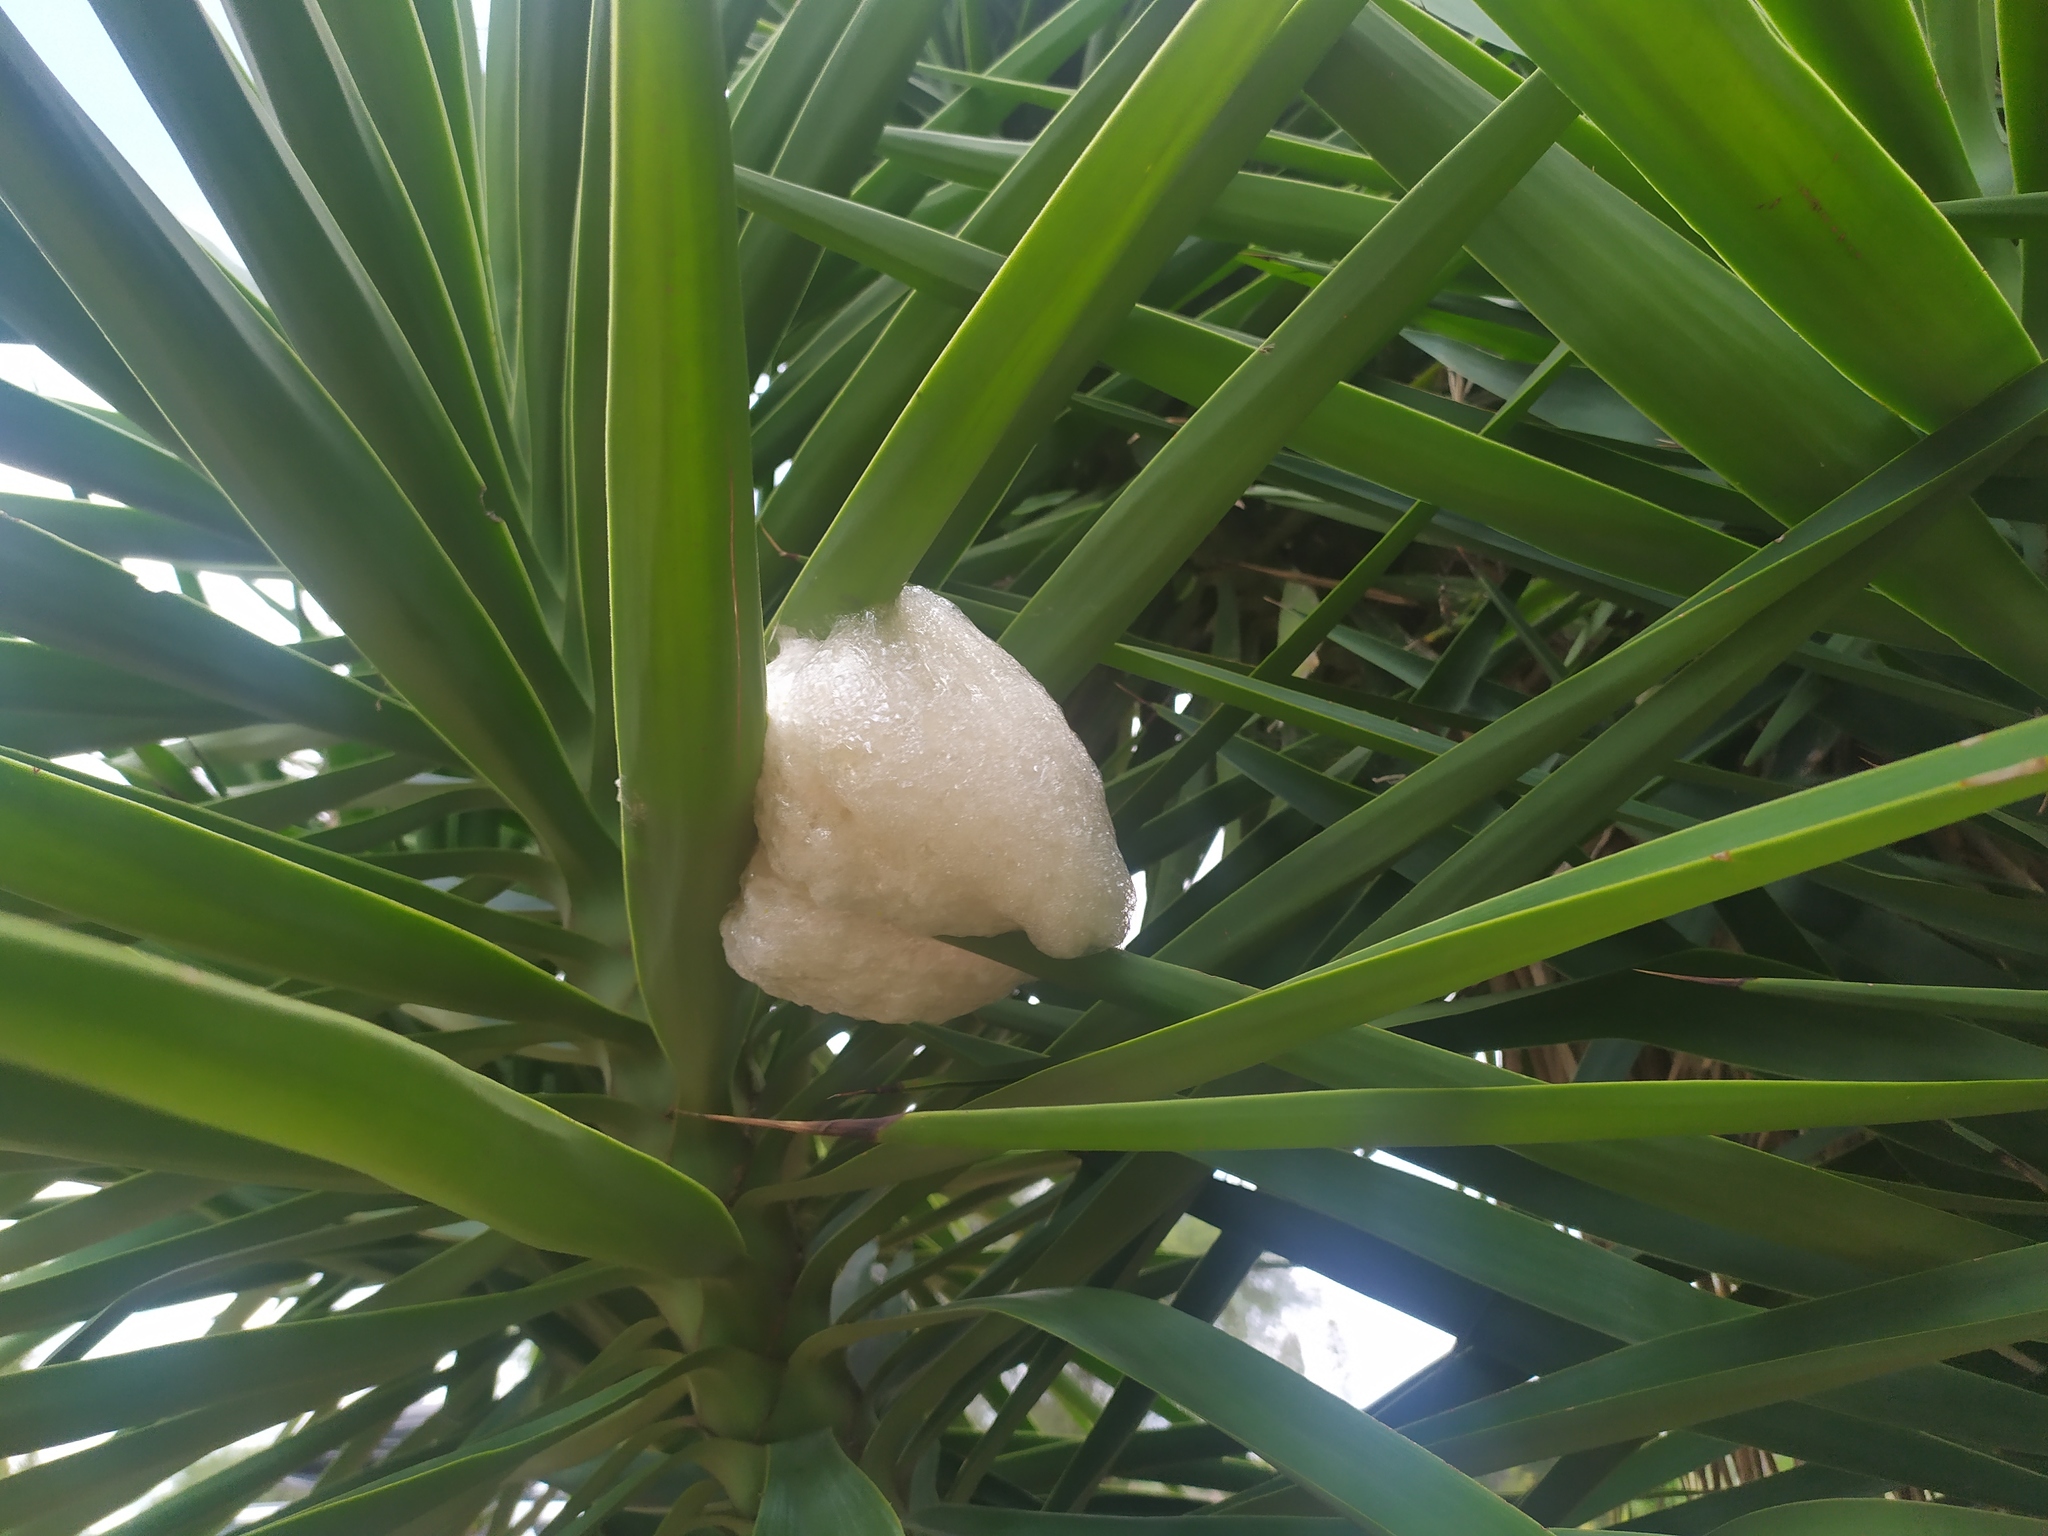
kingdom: Animalia
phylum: Chordata
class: Amphibia
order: Anura
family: Rhacophoridae
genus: Chiromantis
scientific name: Chiromantis xerampelina
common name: African gray treefrog
